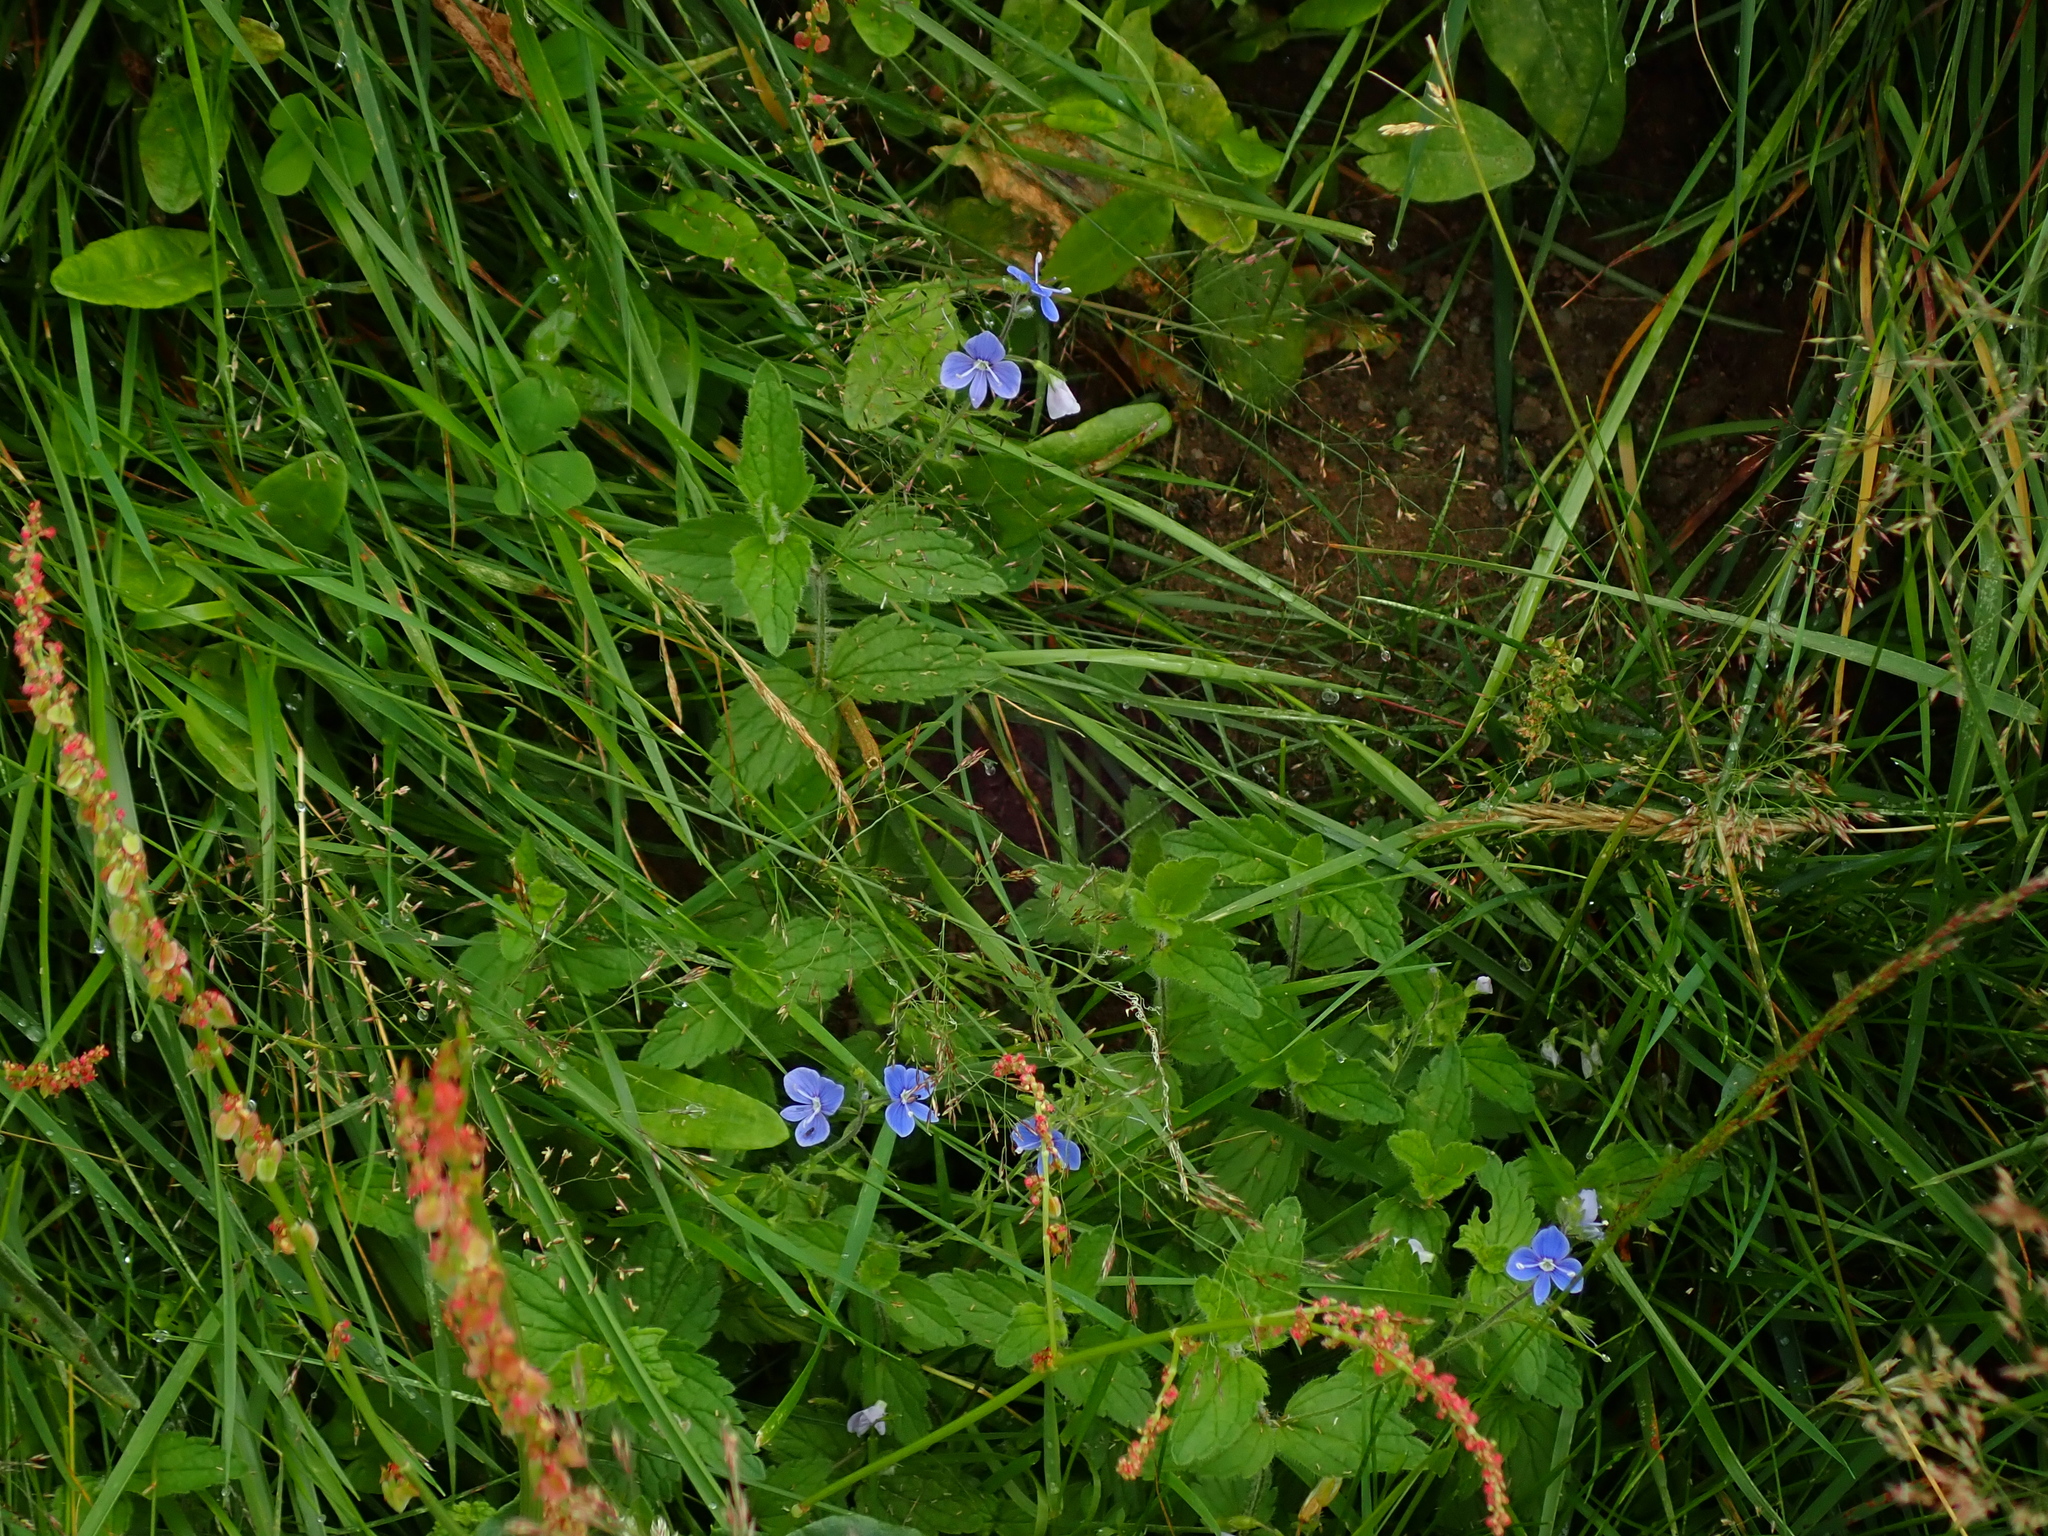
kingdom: Plantae
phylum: Tracheophyta
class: Magnoliopsida
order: Lamiales
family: Plantaginaceae
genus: Veronica
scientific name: Veronica chamaedrys
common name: Germander speedwell
